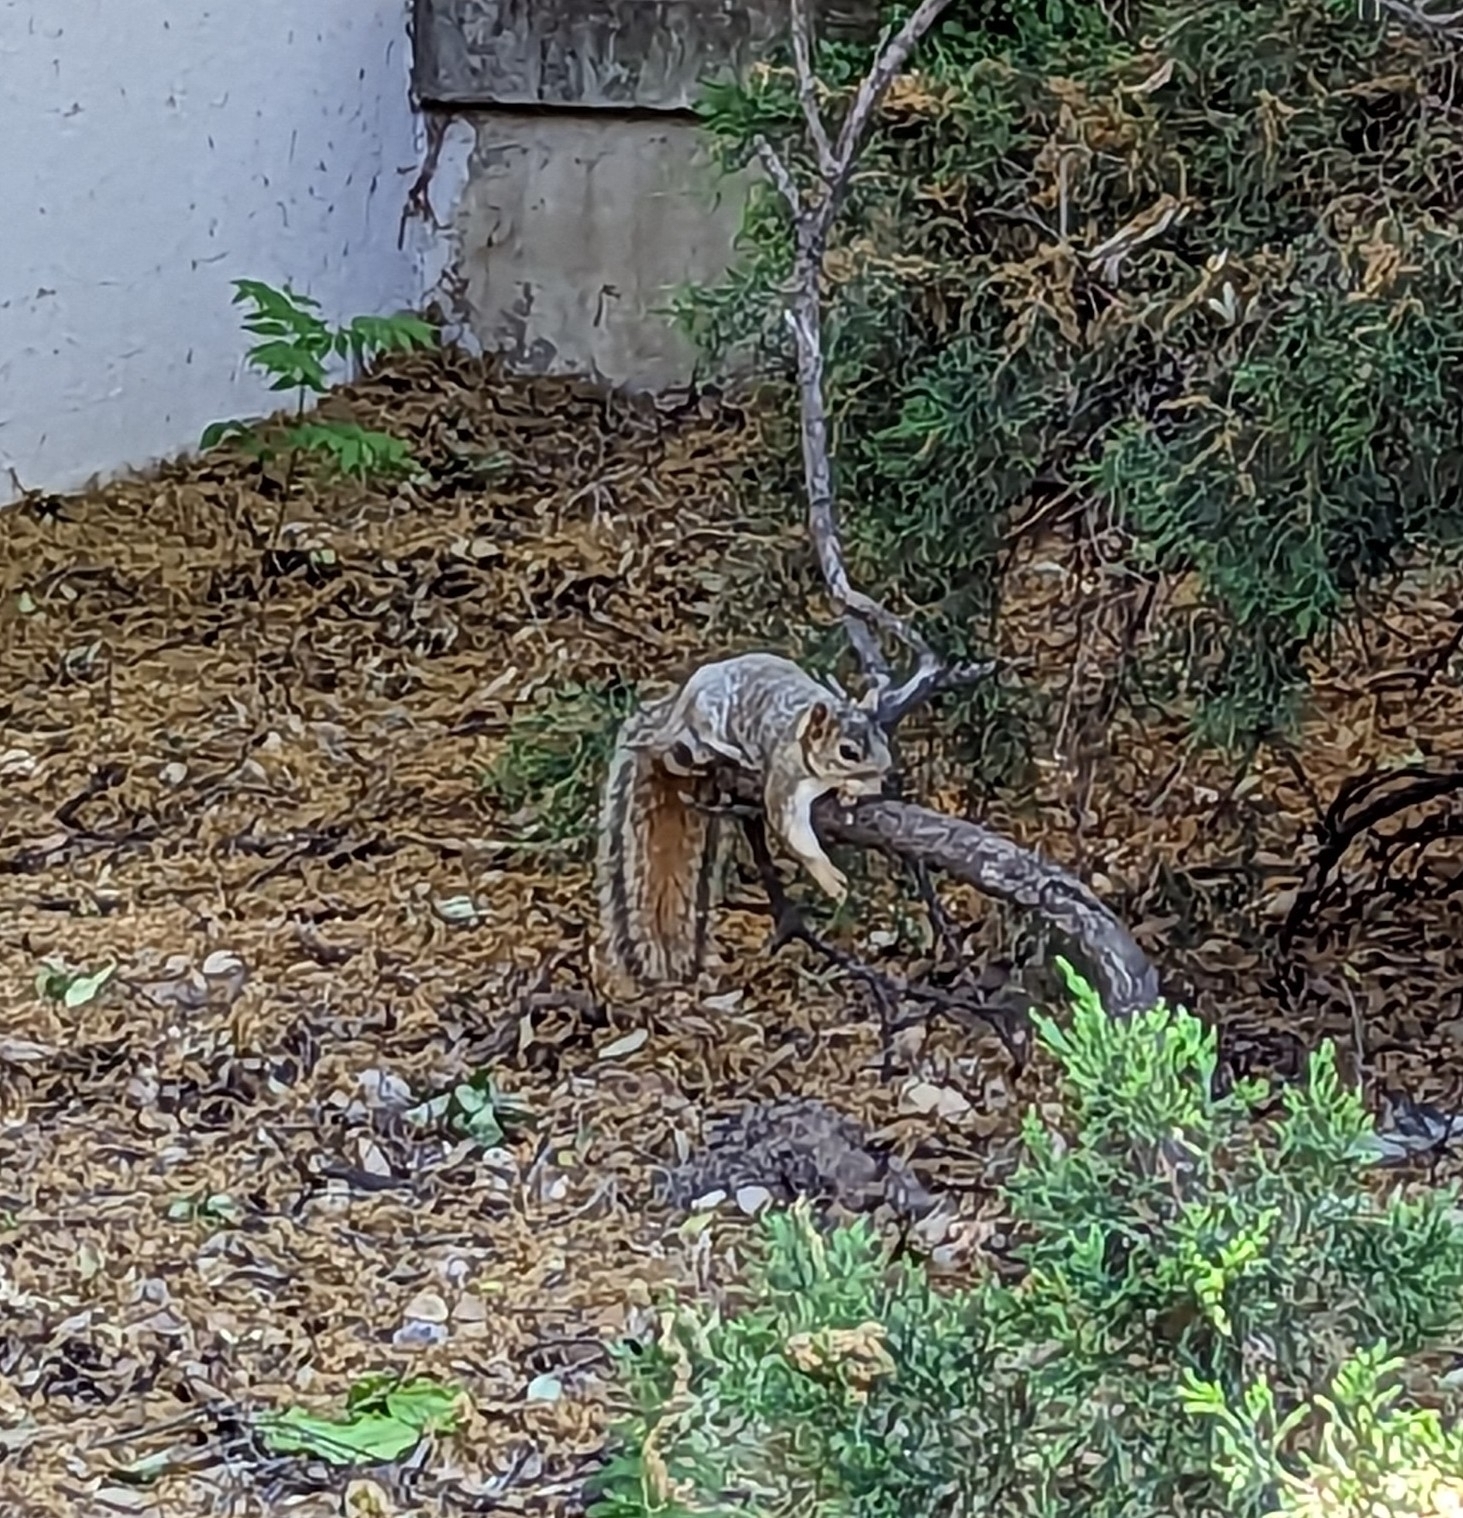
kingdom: Animalia
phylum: Chordata
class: Mammalia
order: Rodentia
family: Sciuridae
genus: Sciurus
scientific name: Sciurus niger
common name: Fox squirrel
